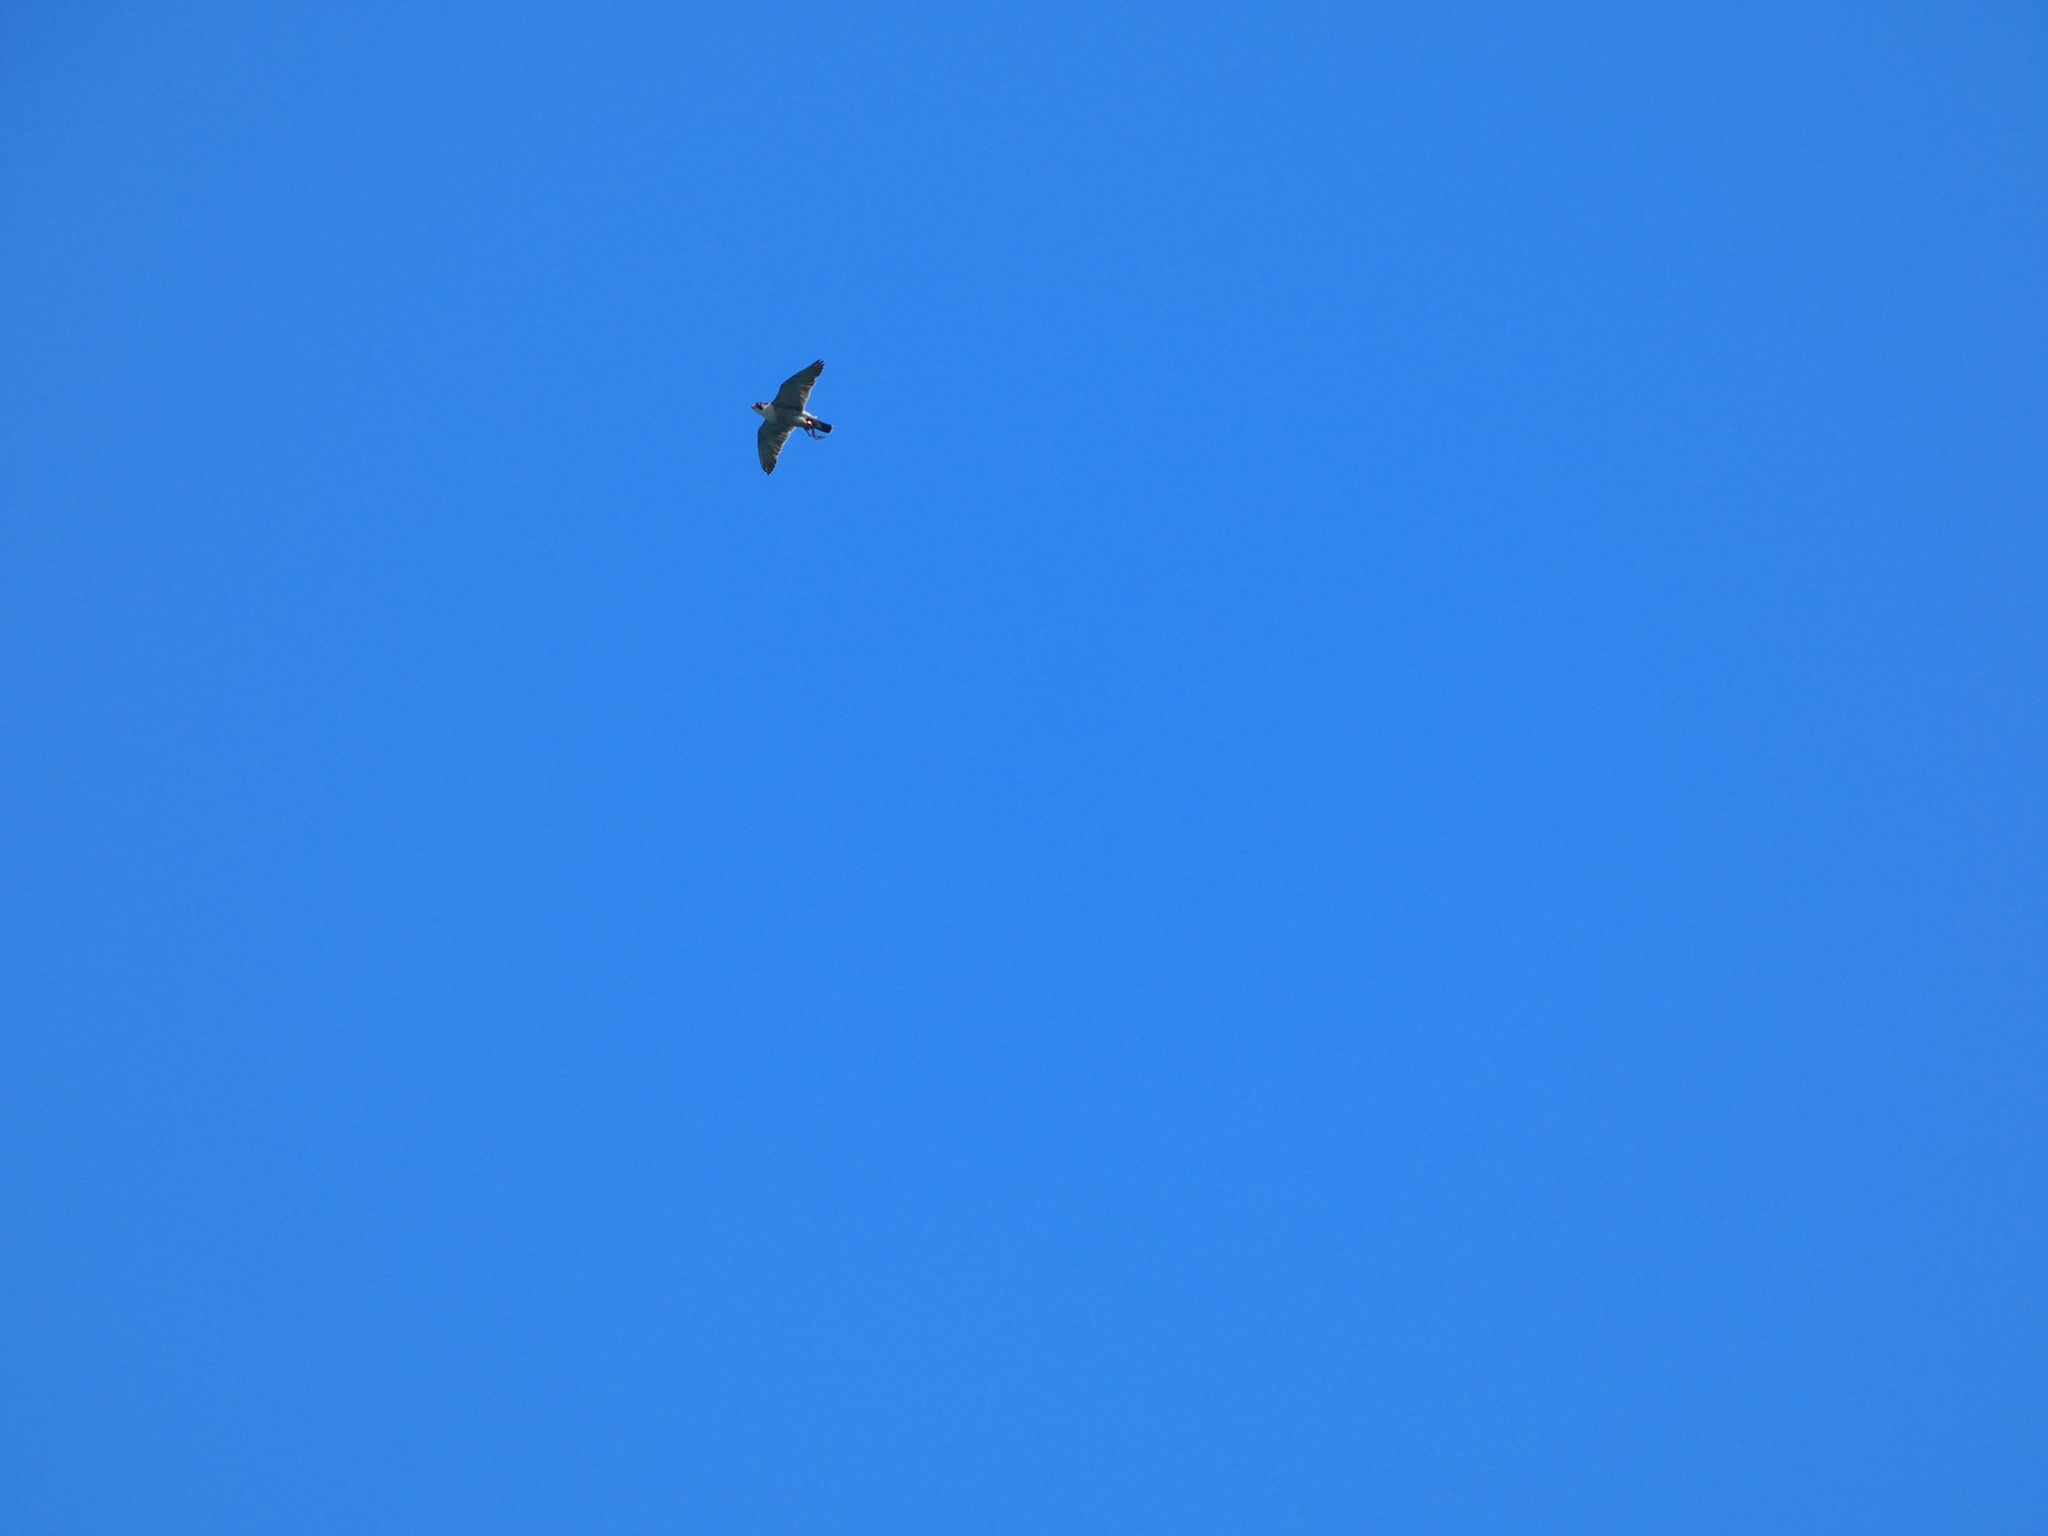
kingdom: Animalia
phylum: Chordata
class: Aves
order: Falconiformes
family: Falconidae
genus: Falco
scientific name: Falco peregrinus
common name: Peregrine falcon
